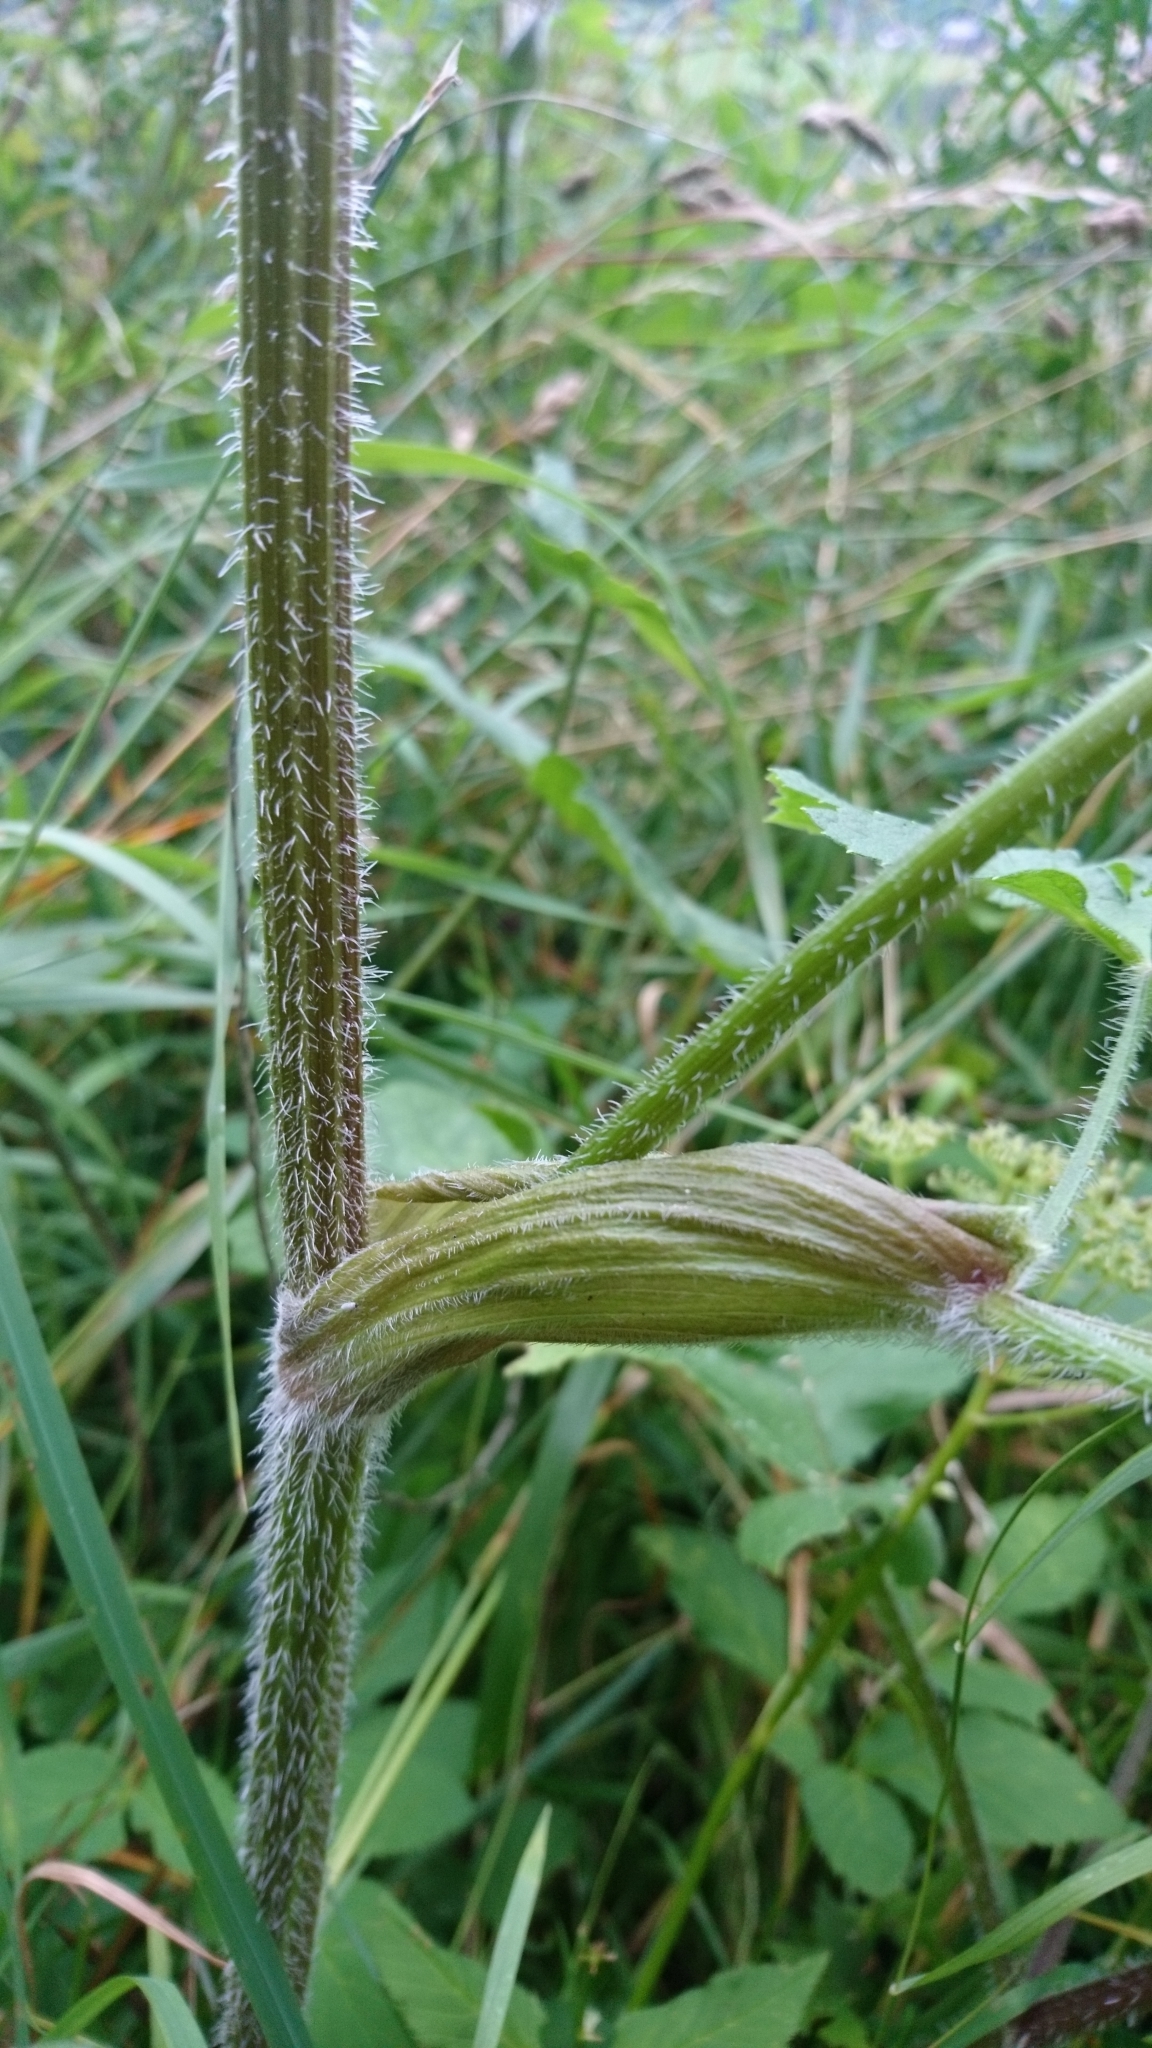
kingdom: Plantae
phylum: Tracheophyta
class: Magnoliopsida
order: Apiales
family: Apiaceae
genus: Heracleum
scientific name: Heracleum sphondylium
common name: Hogweed
